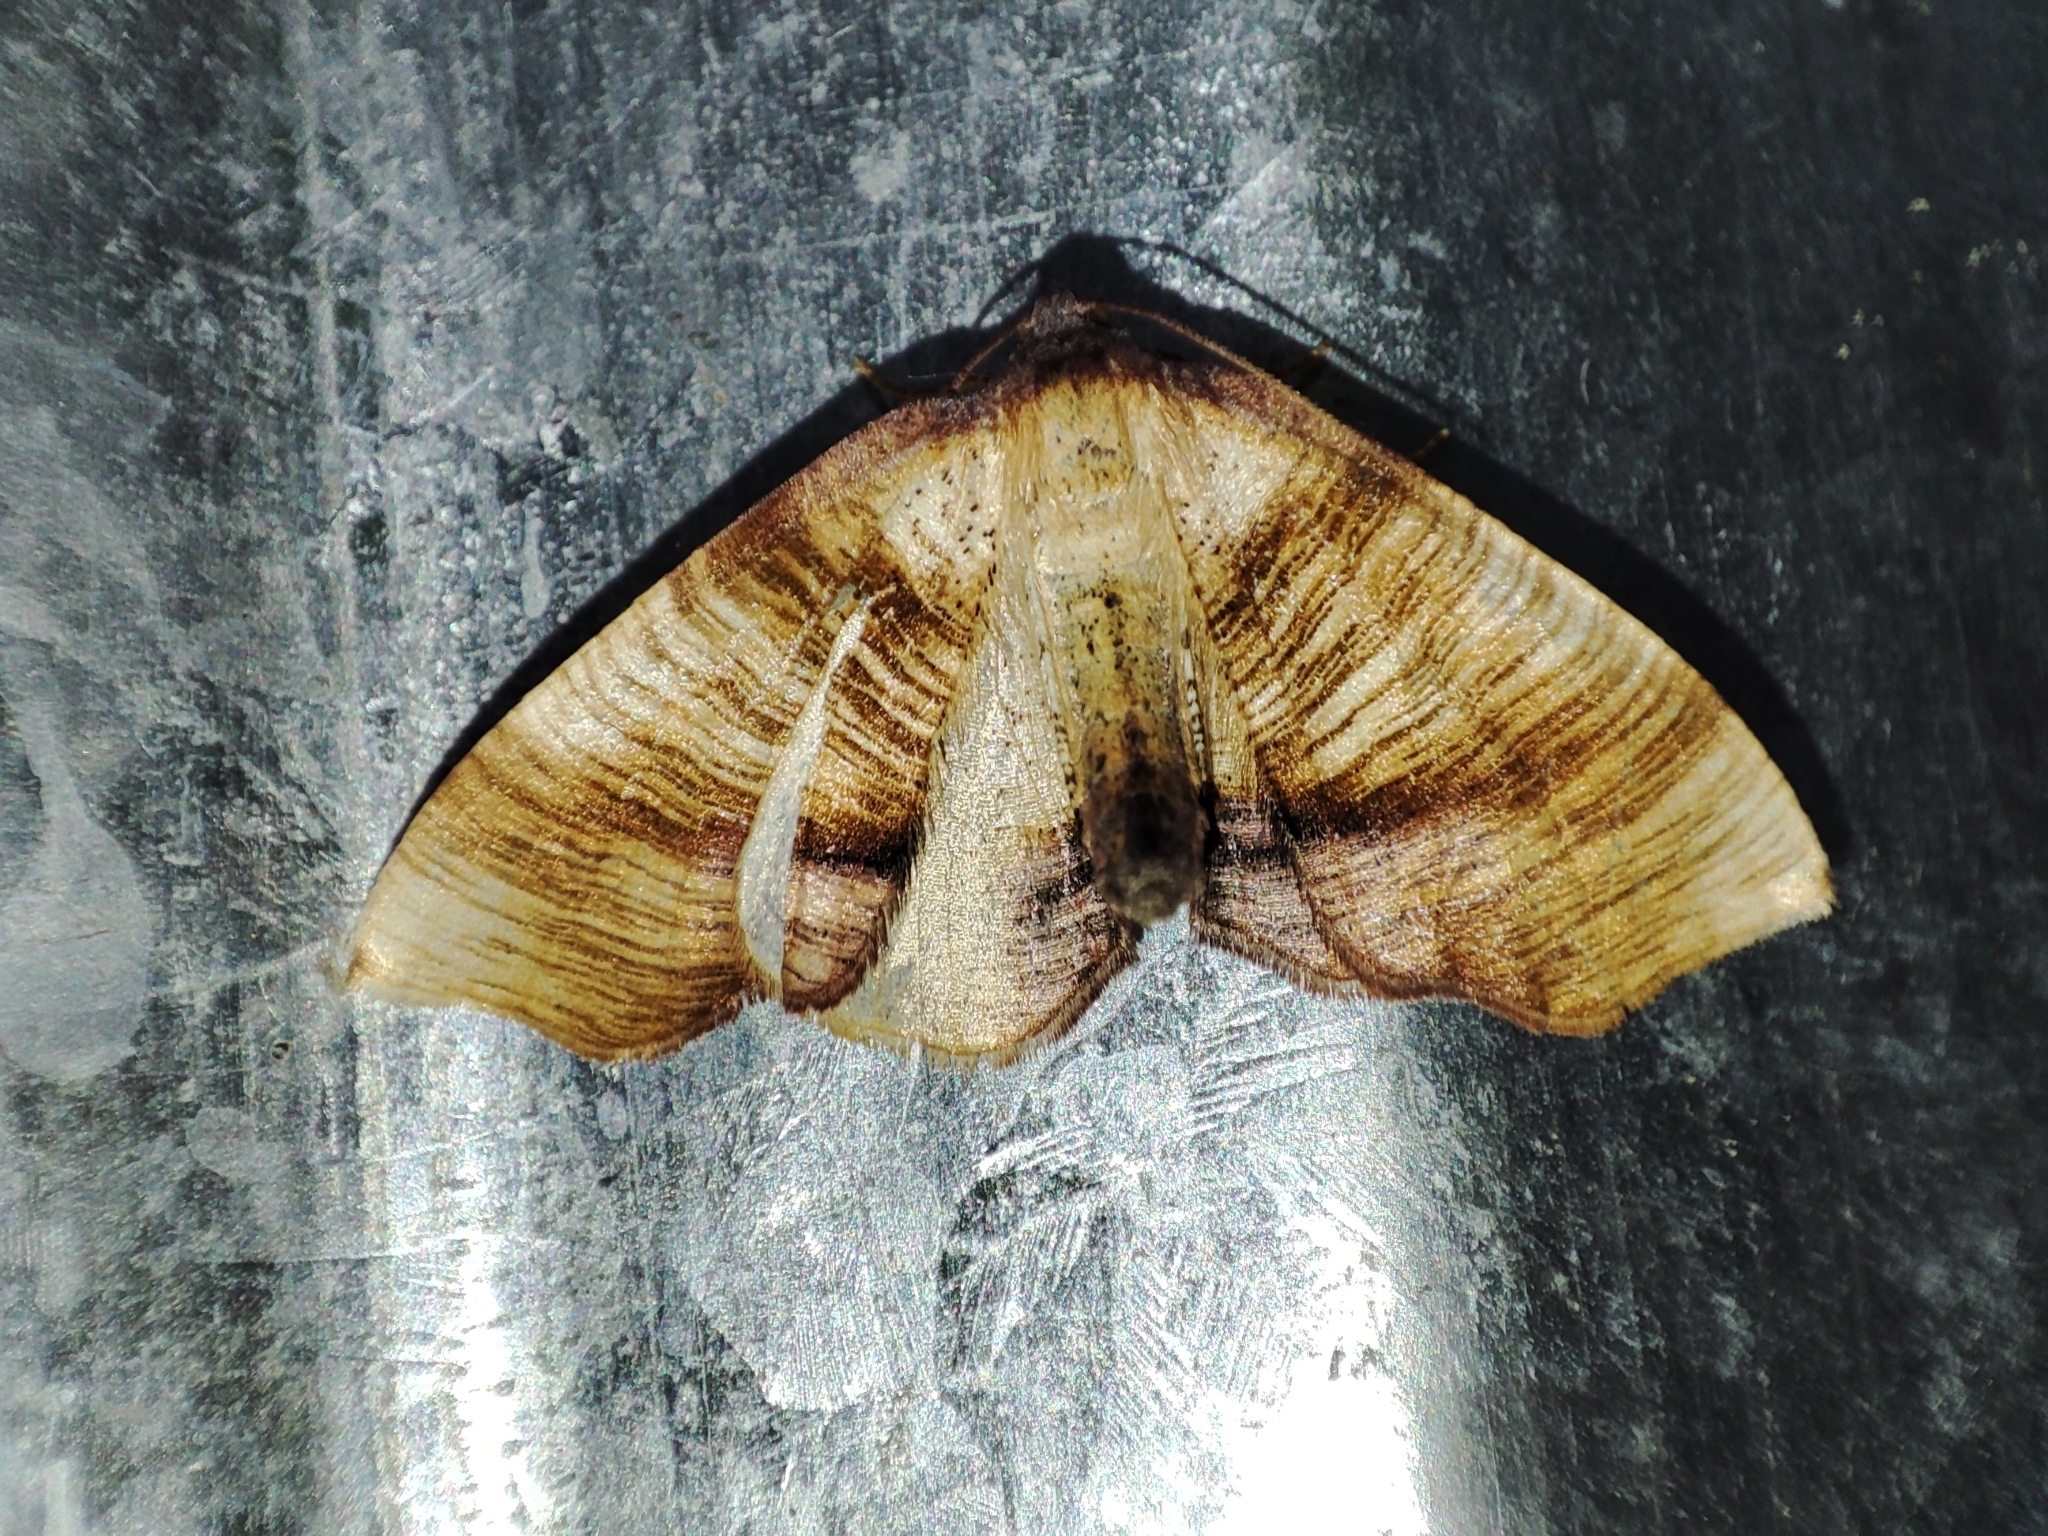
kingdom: Animalia
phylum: Arthropoda
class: Insecta
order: Lepidoptera
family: Geometridae
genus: Plagodis
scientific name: Plagodis dolabraria
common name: Scorched wing
